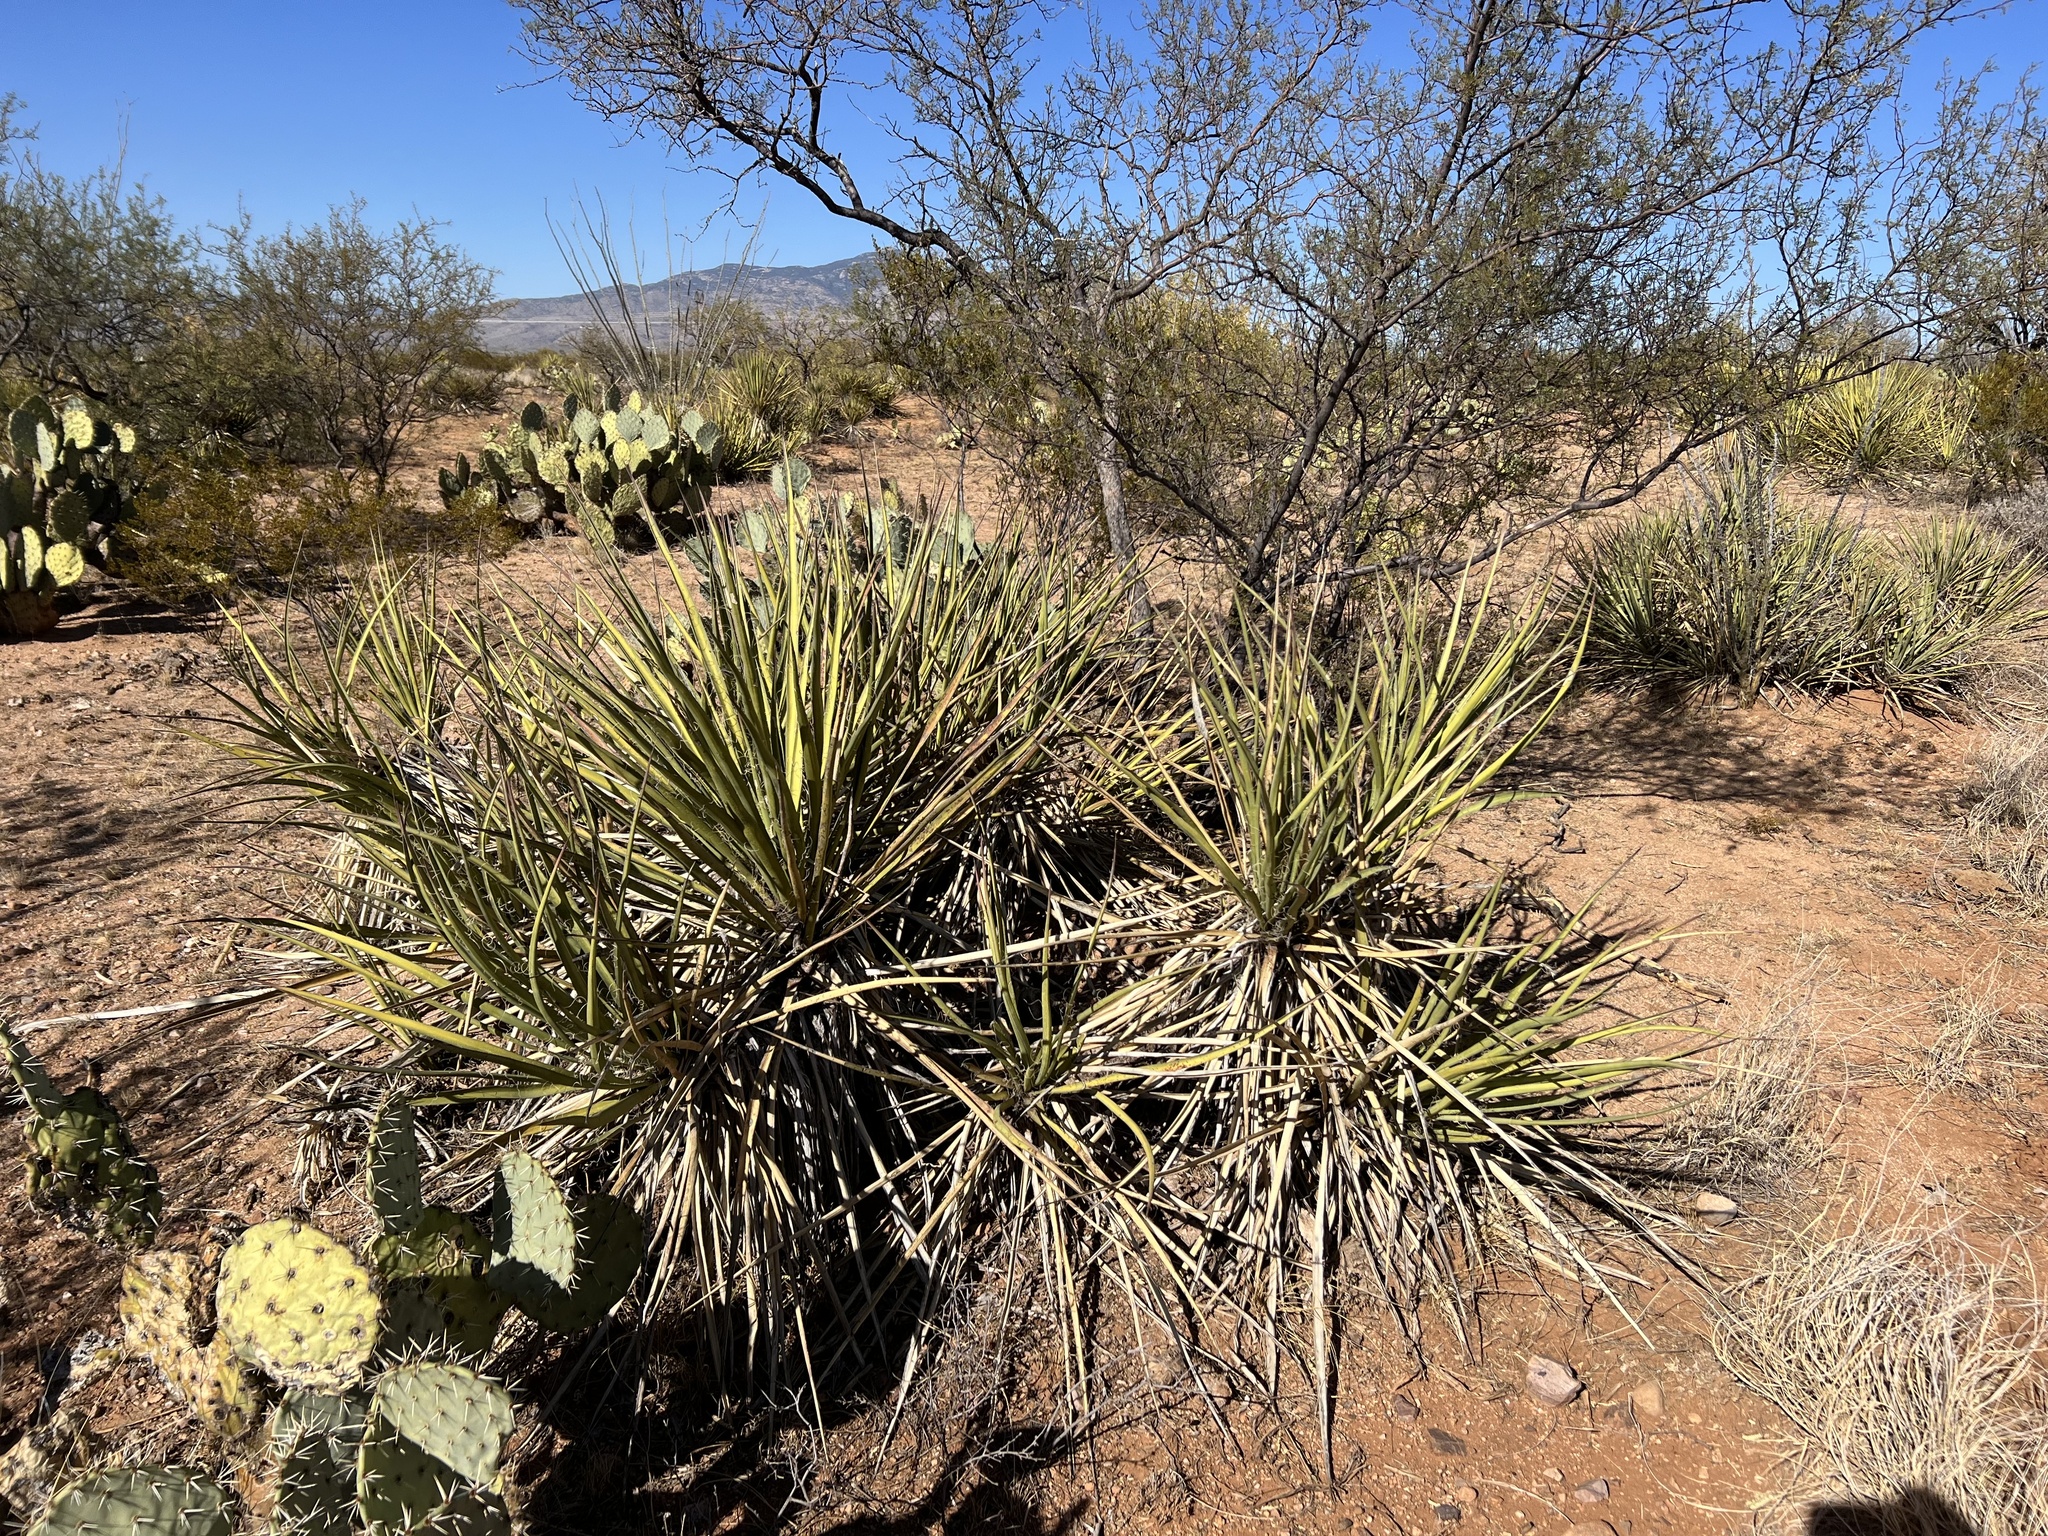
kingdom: Plantae
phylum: Tracheophyta
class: Liliopsida
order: Asparagales
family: Asparagaceae
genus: Yucca
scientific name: Yucca baccata
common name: Banana yucca
